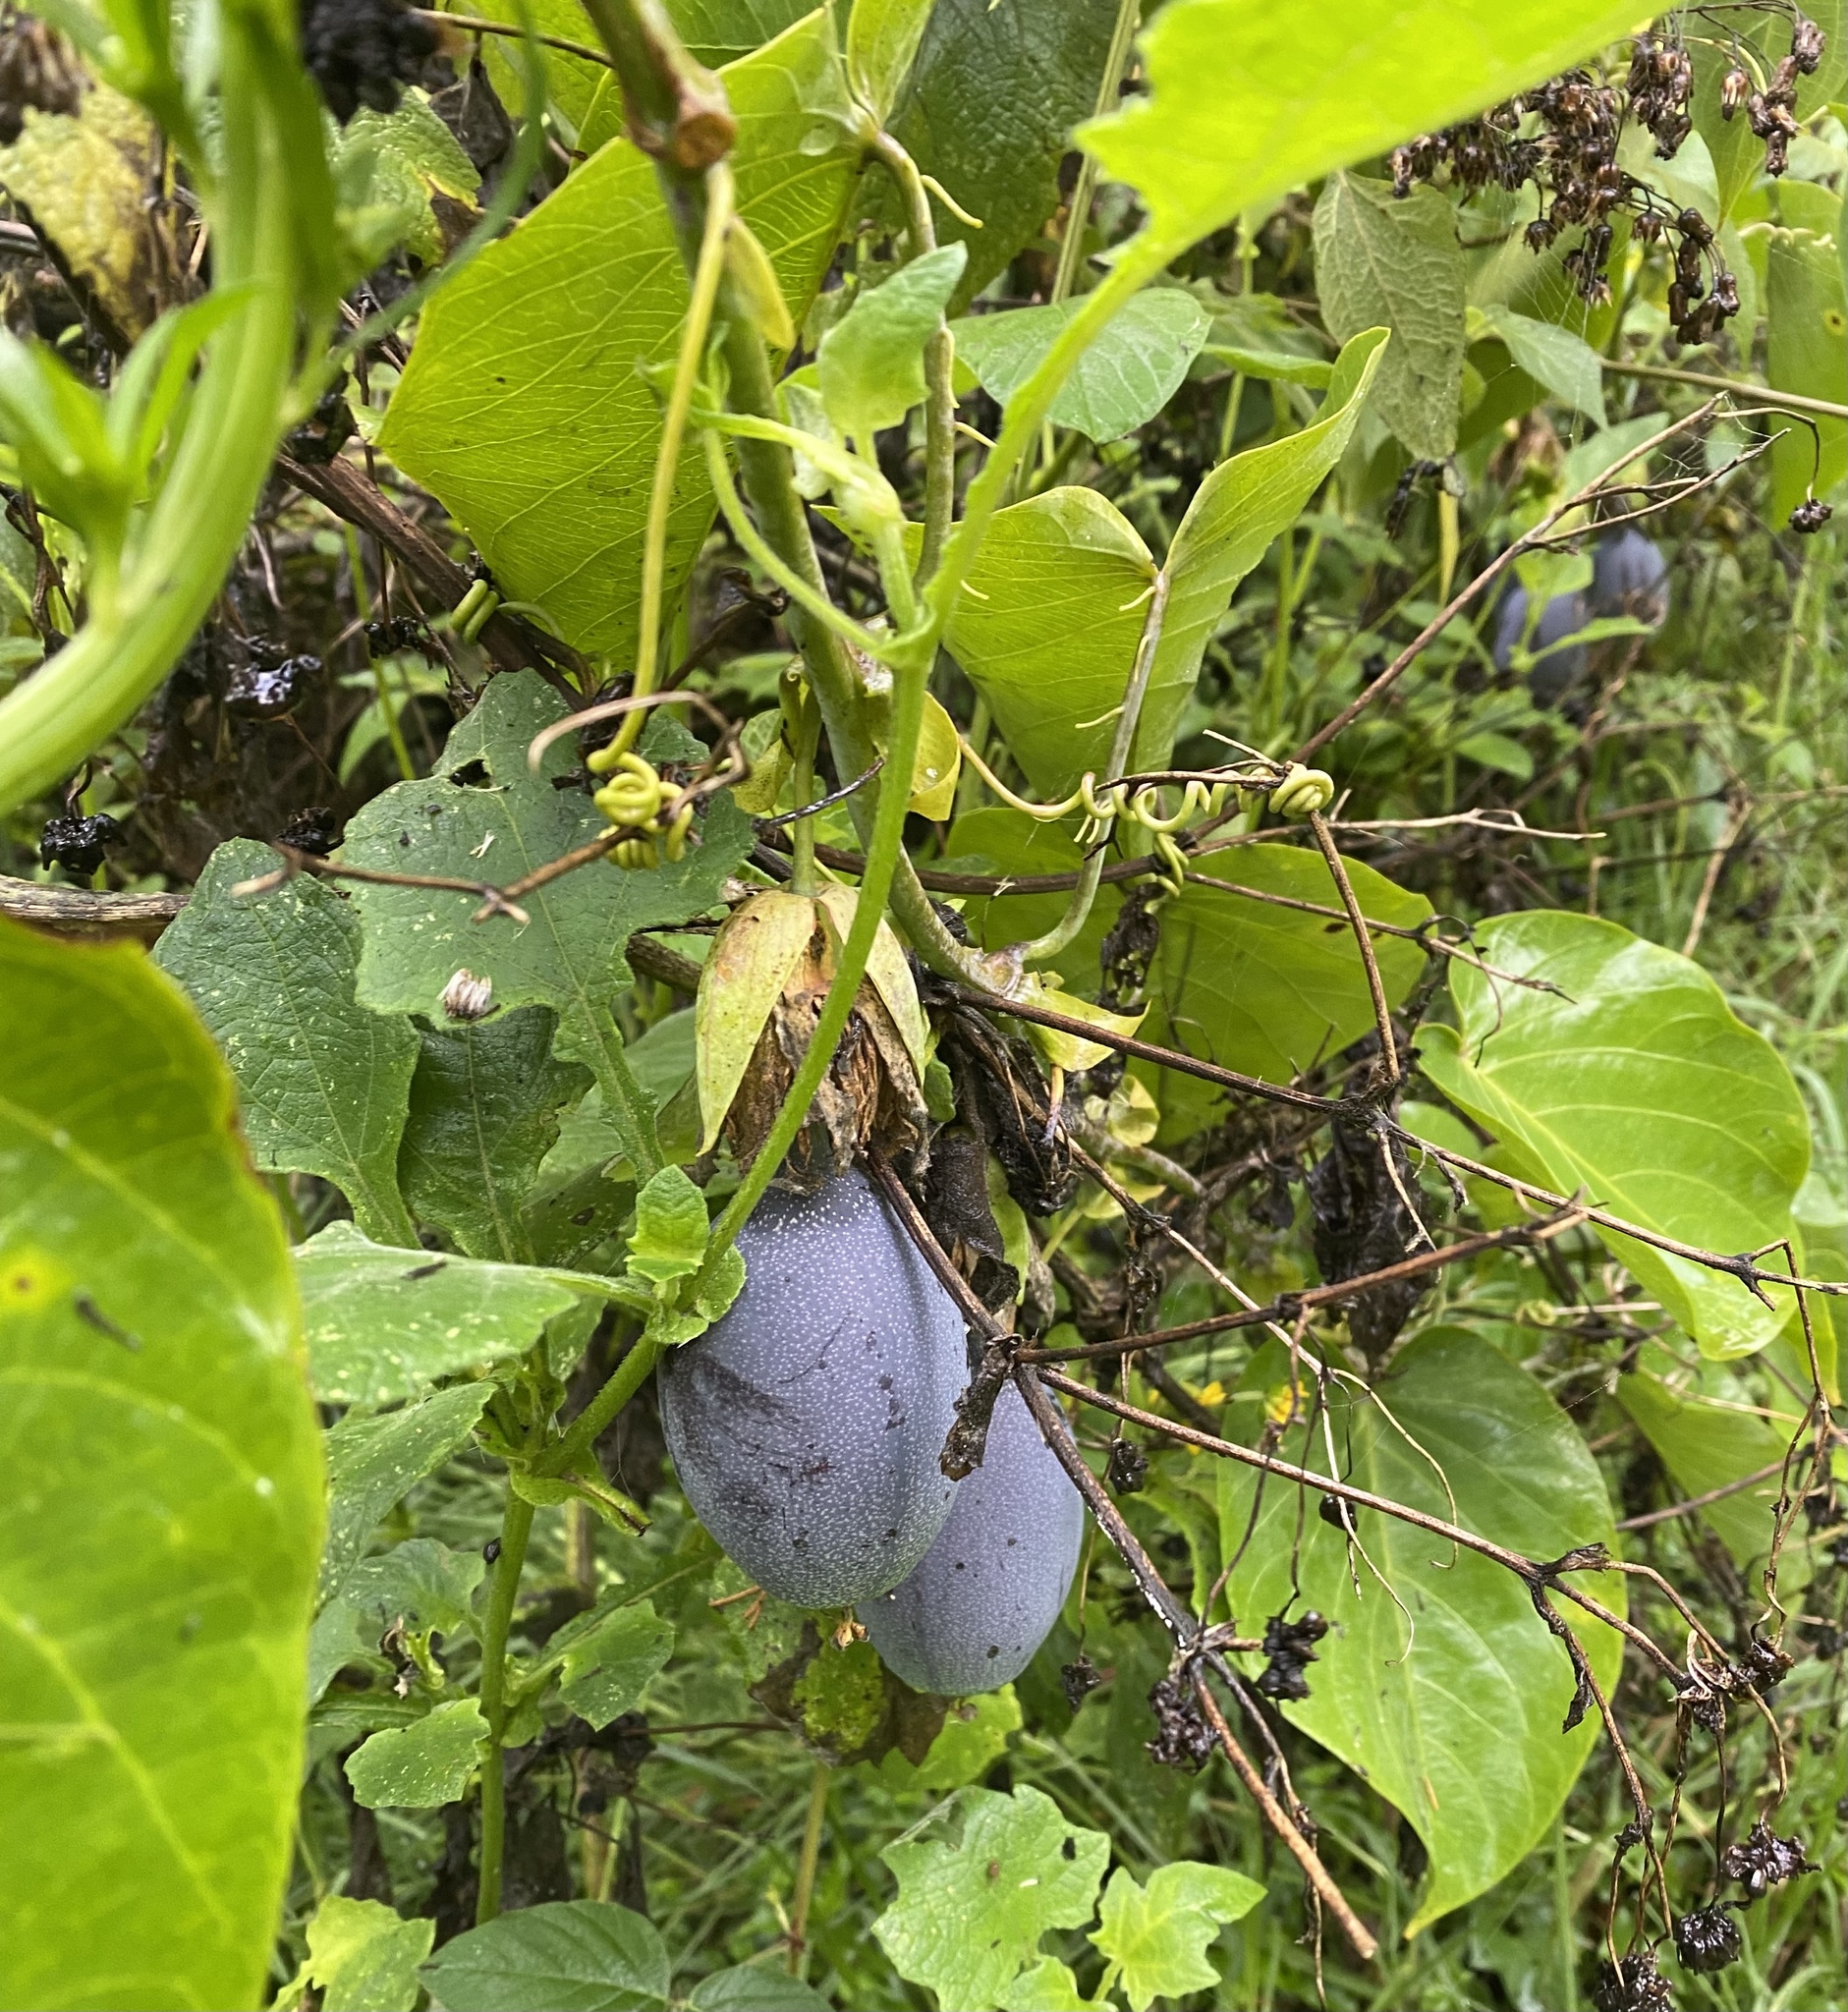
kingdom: Plantae
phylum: Tracheophyta
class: Magnoliopsida
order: Malpighiales
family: Passifloraceae
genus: Passiflora
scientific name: Passiflora ligularis
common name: Sweet granadilla
